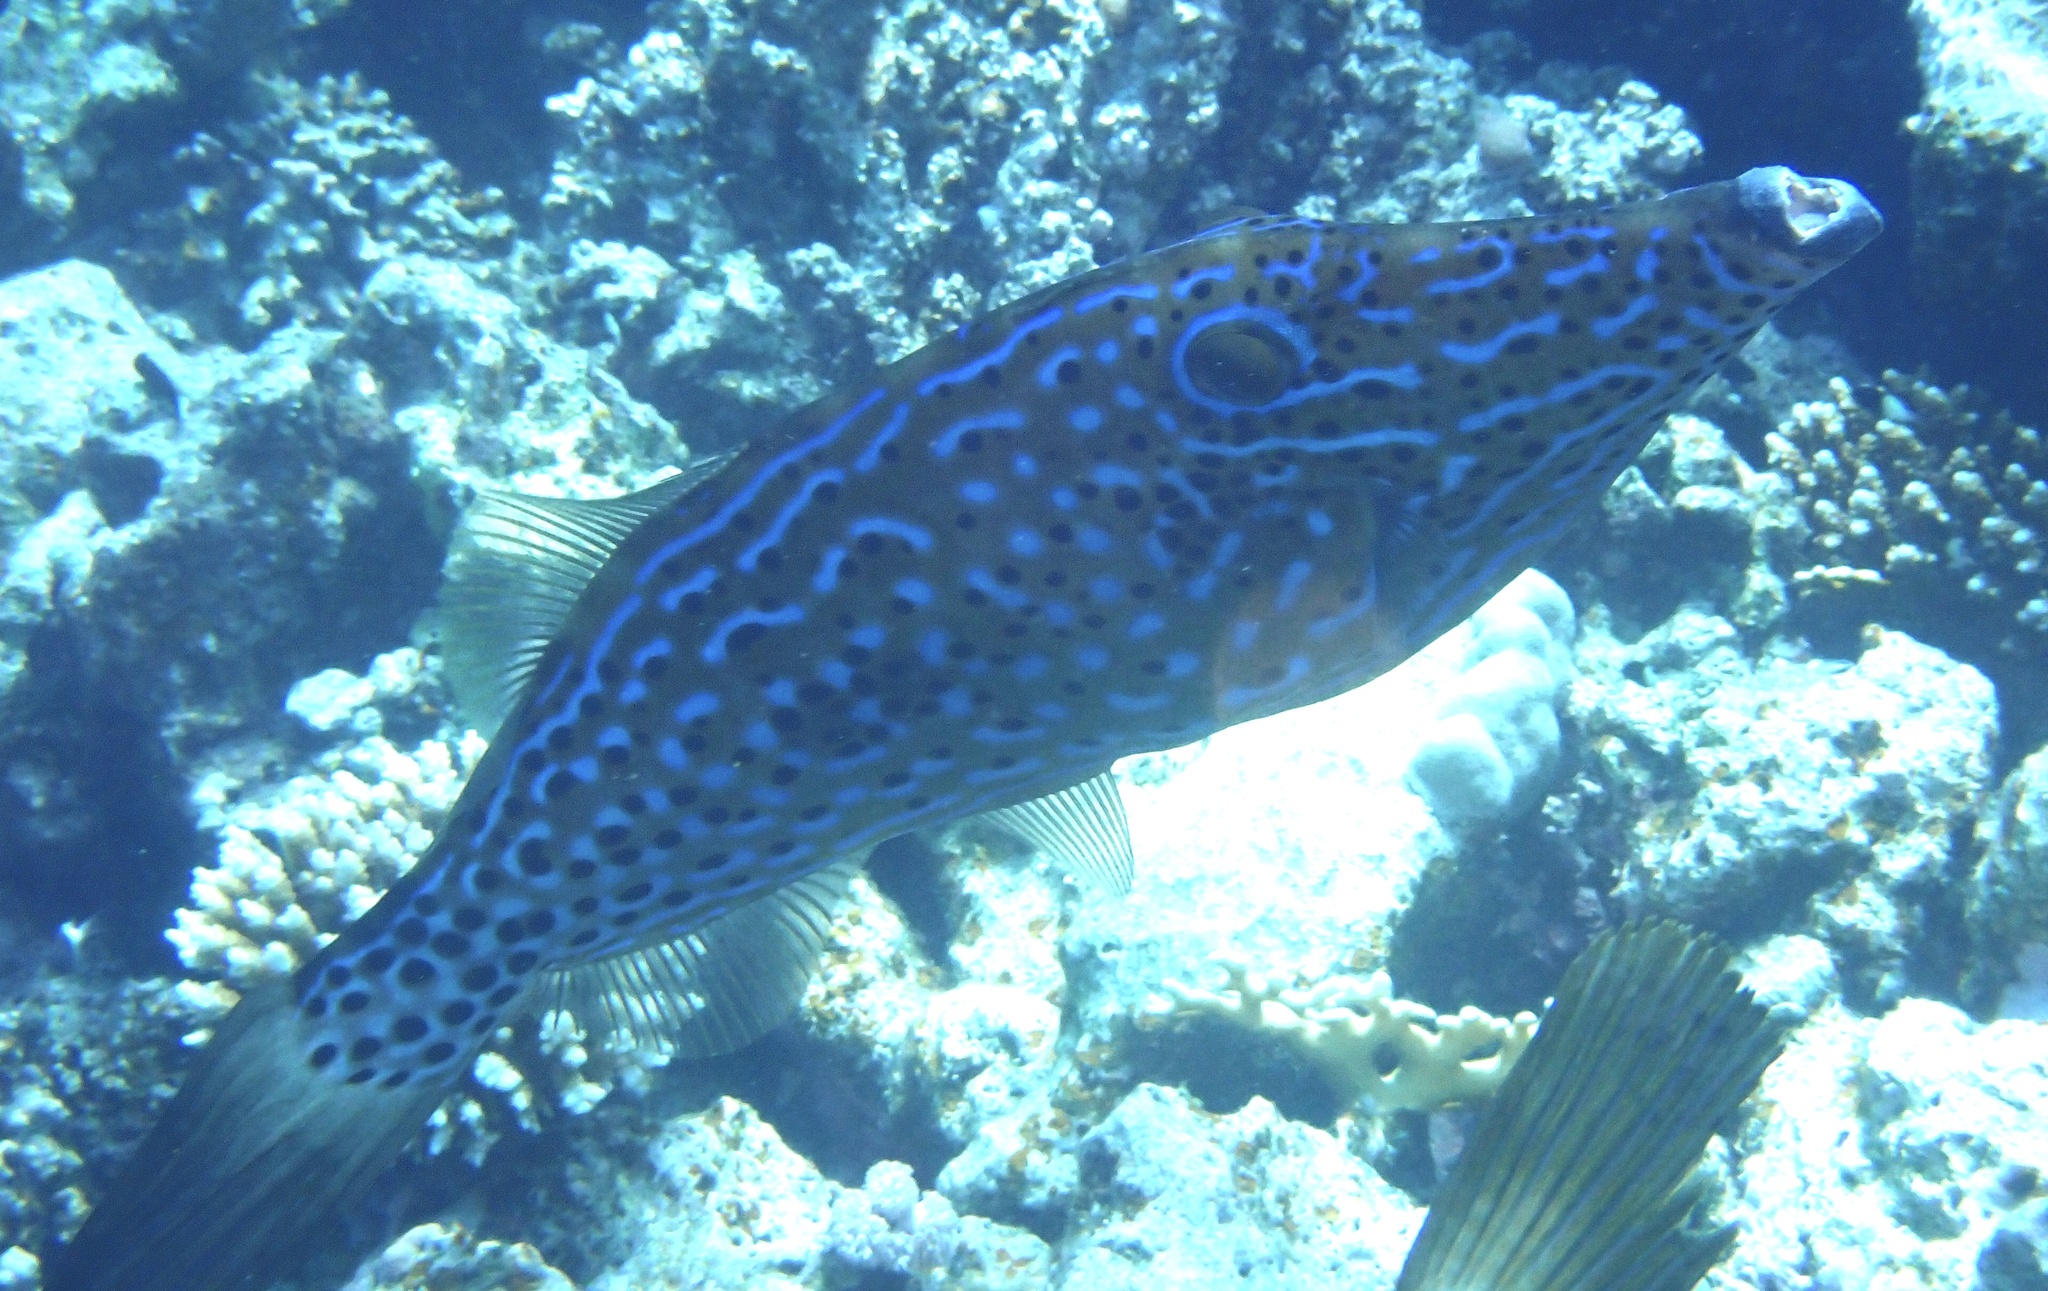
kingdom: Animalia
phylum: Chordata
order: Tetraodontiformes
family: Monacanthidae
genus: Aluterus
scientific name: Aluterus scriptus
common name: Scribbled leatherjacket filefish
